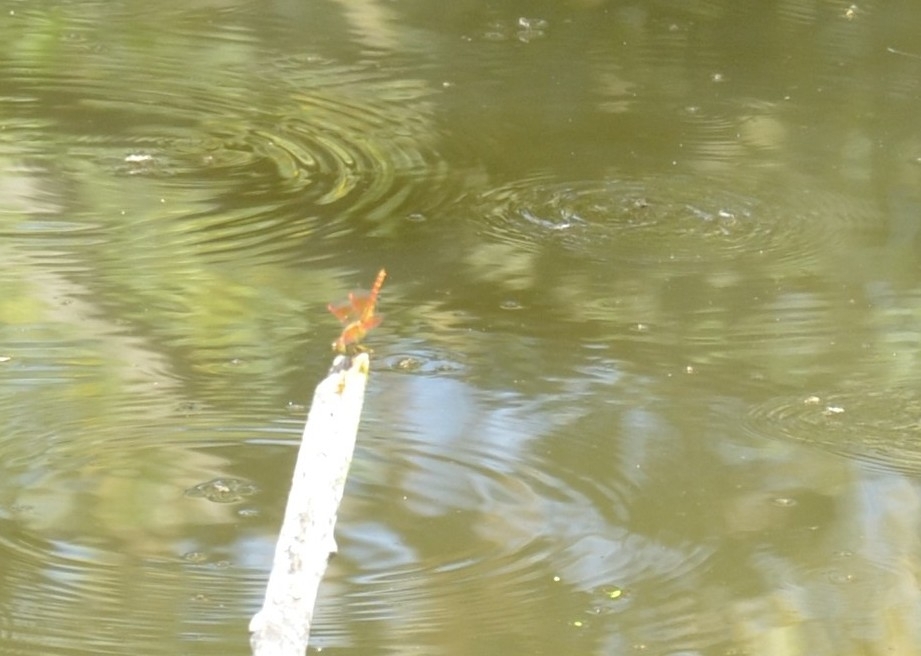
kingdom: Animalia
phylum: Arthropoda
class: Insecta
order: Odonata
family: Libellulidae
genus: Brachythemis
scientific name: Brachythemis contaminata
